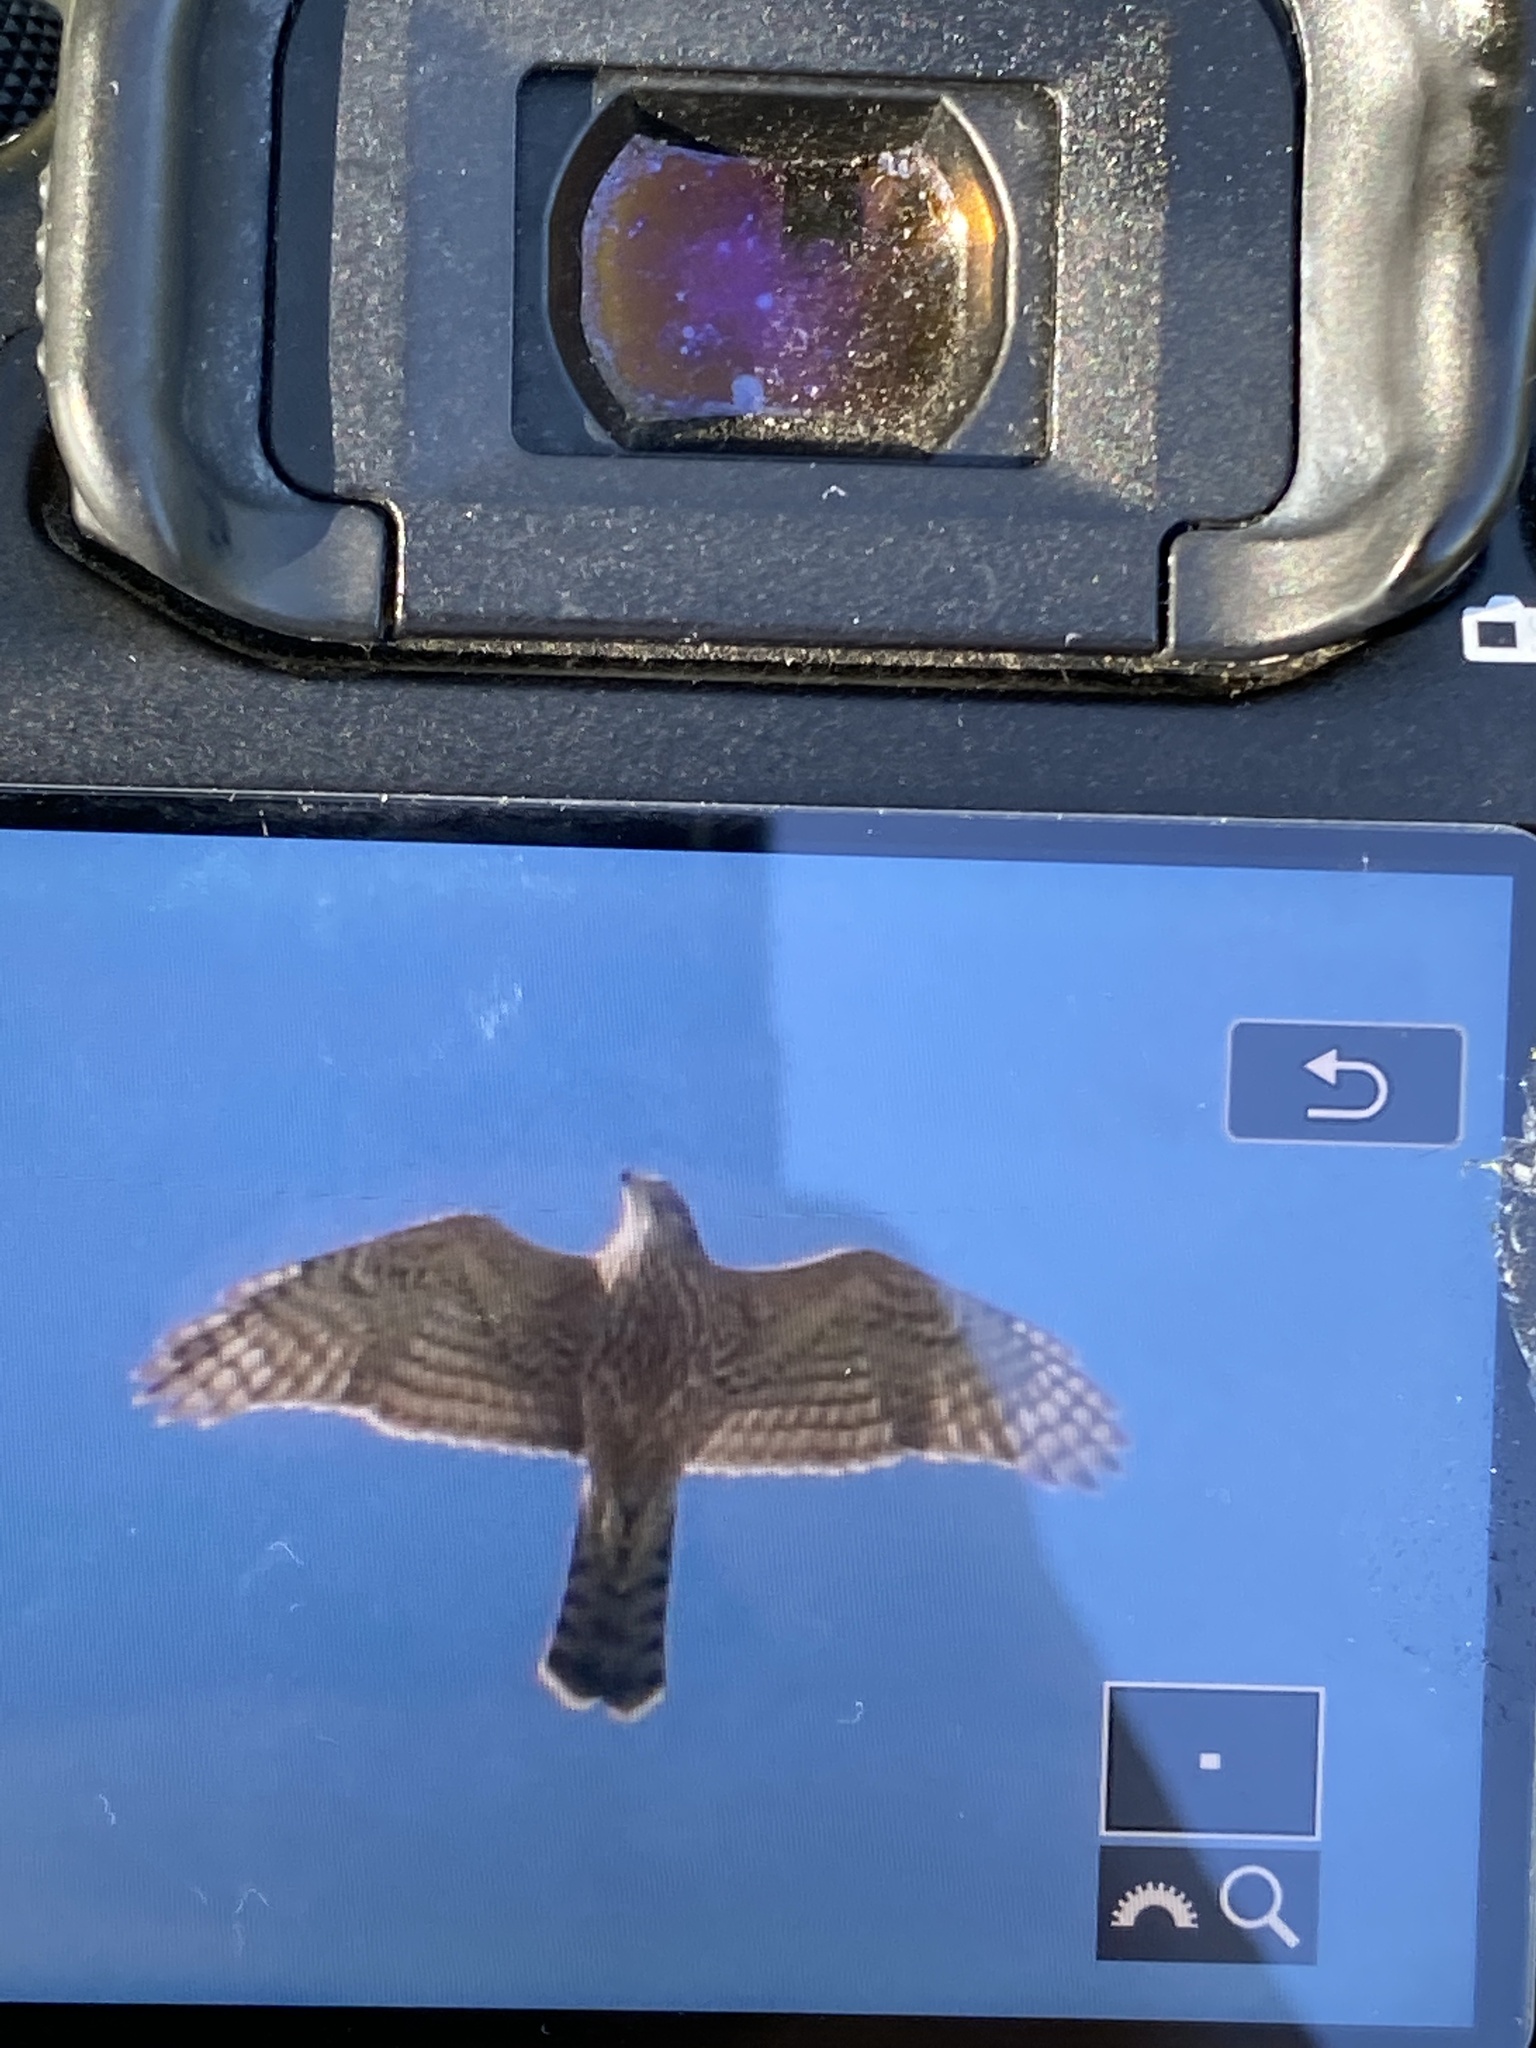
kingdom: Animalia
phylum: Chordata
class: Aves
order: Accipitriformes
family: Accipitridae
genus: Accipiter
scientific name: Accipiter gentilis
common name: Northern goshawk
